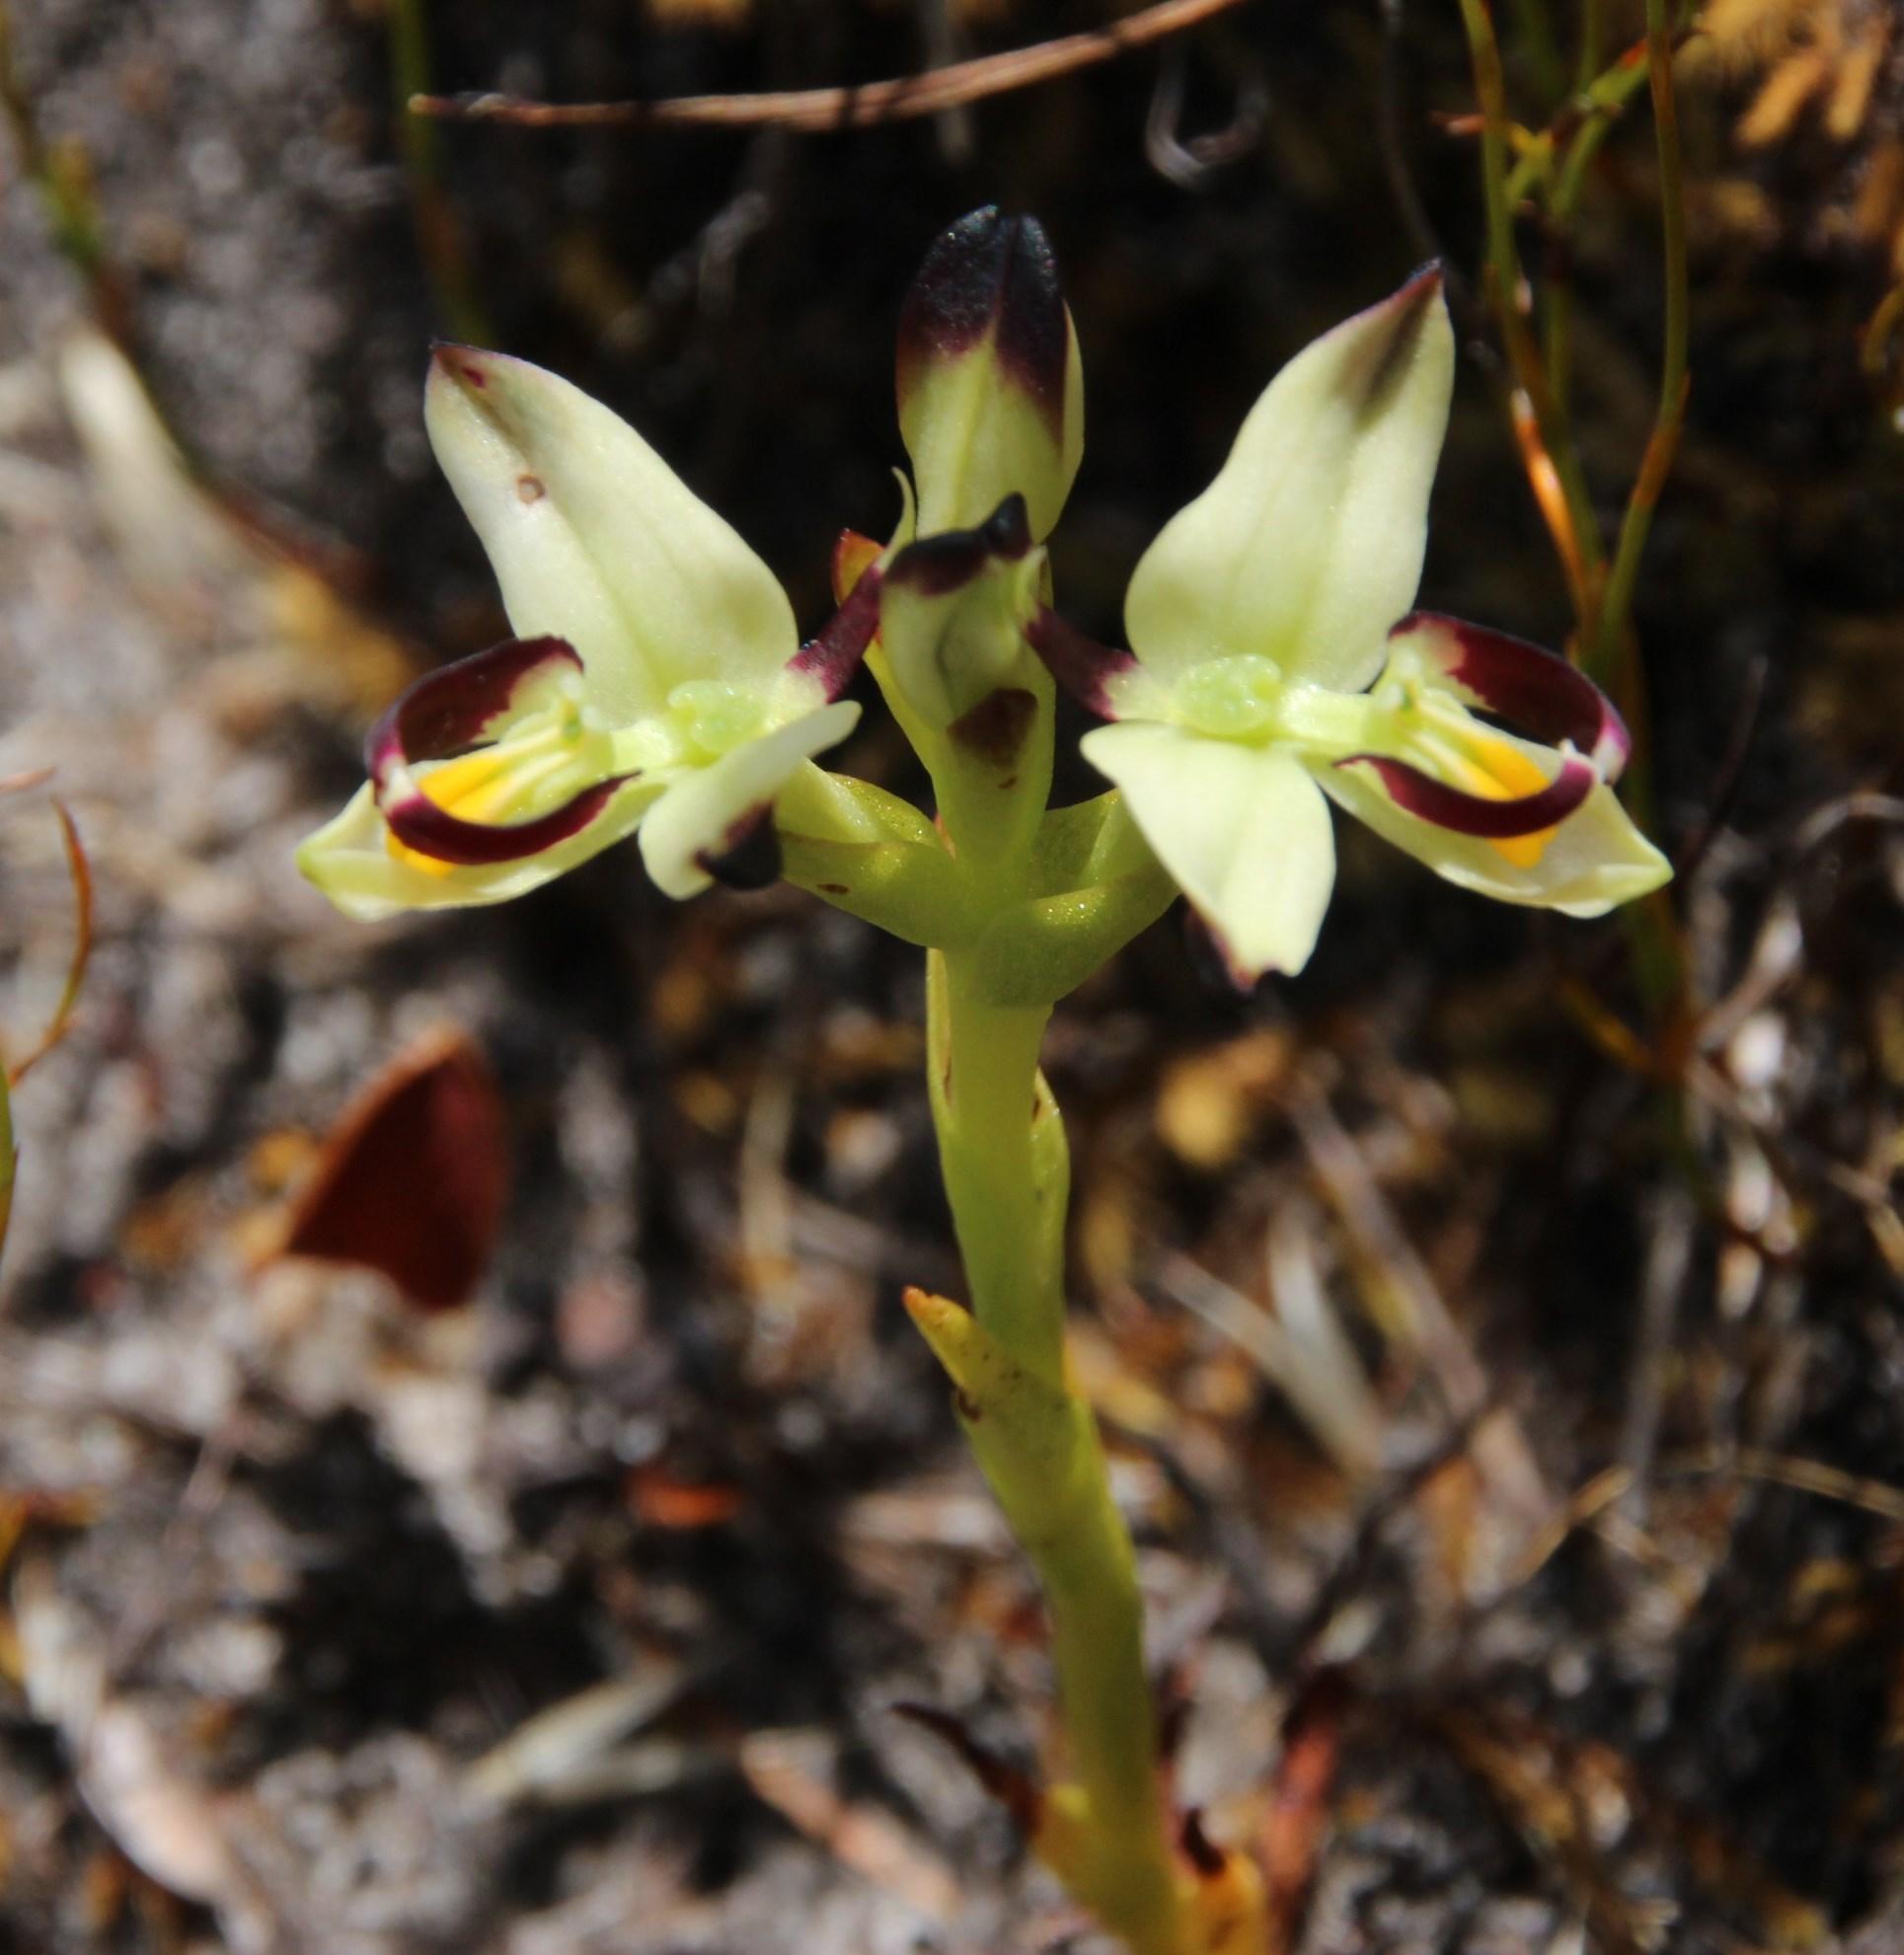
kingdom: Plantae
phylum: Tracheophyta
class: Liliopsida
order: Asparagales
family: Orchidaceae
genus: Disa
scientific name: Disa bivalvata
